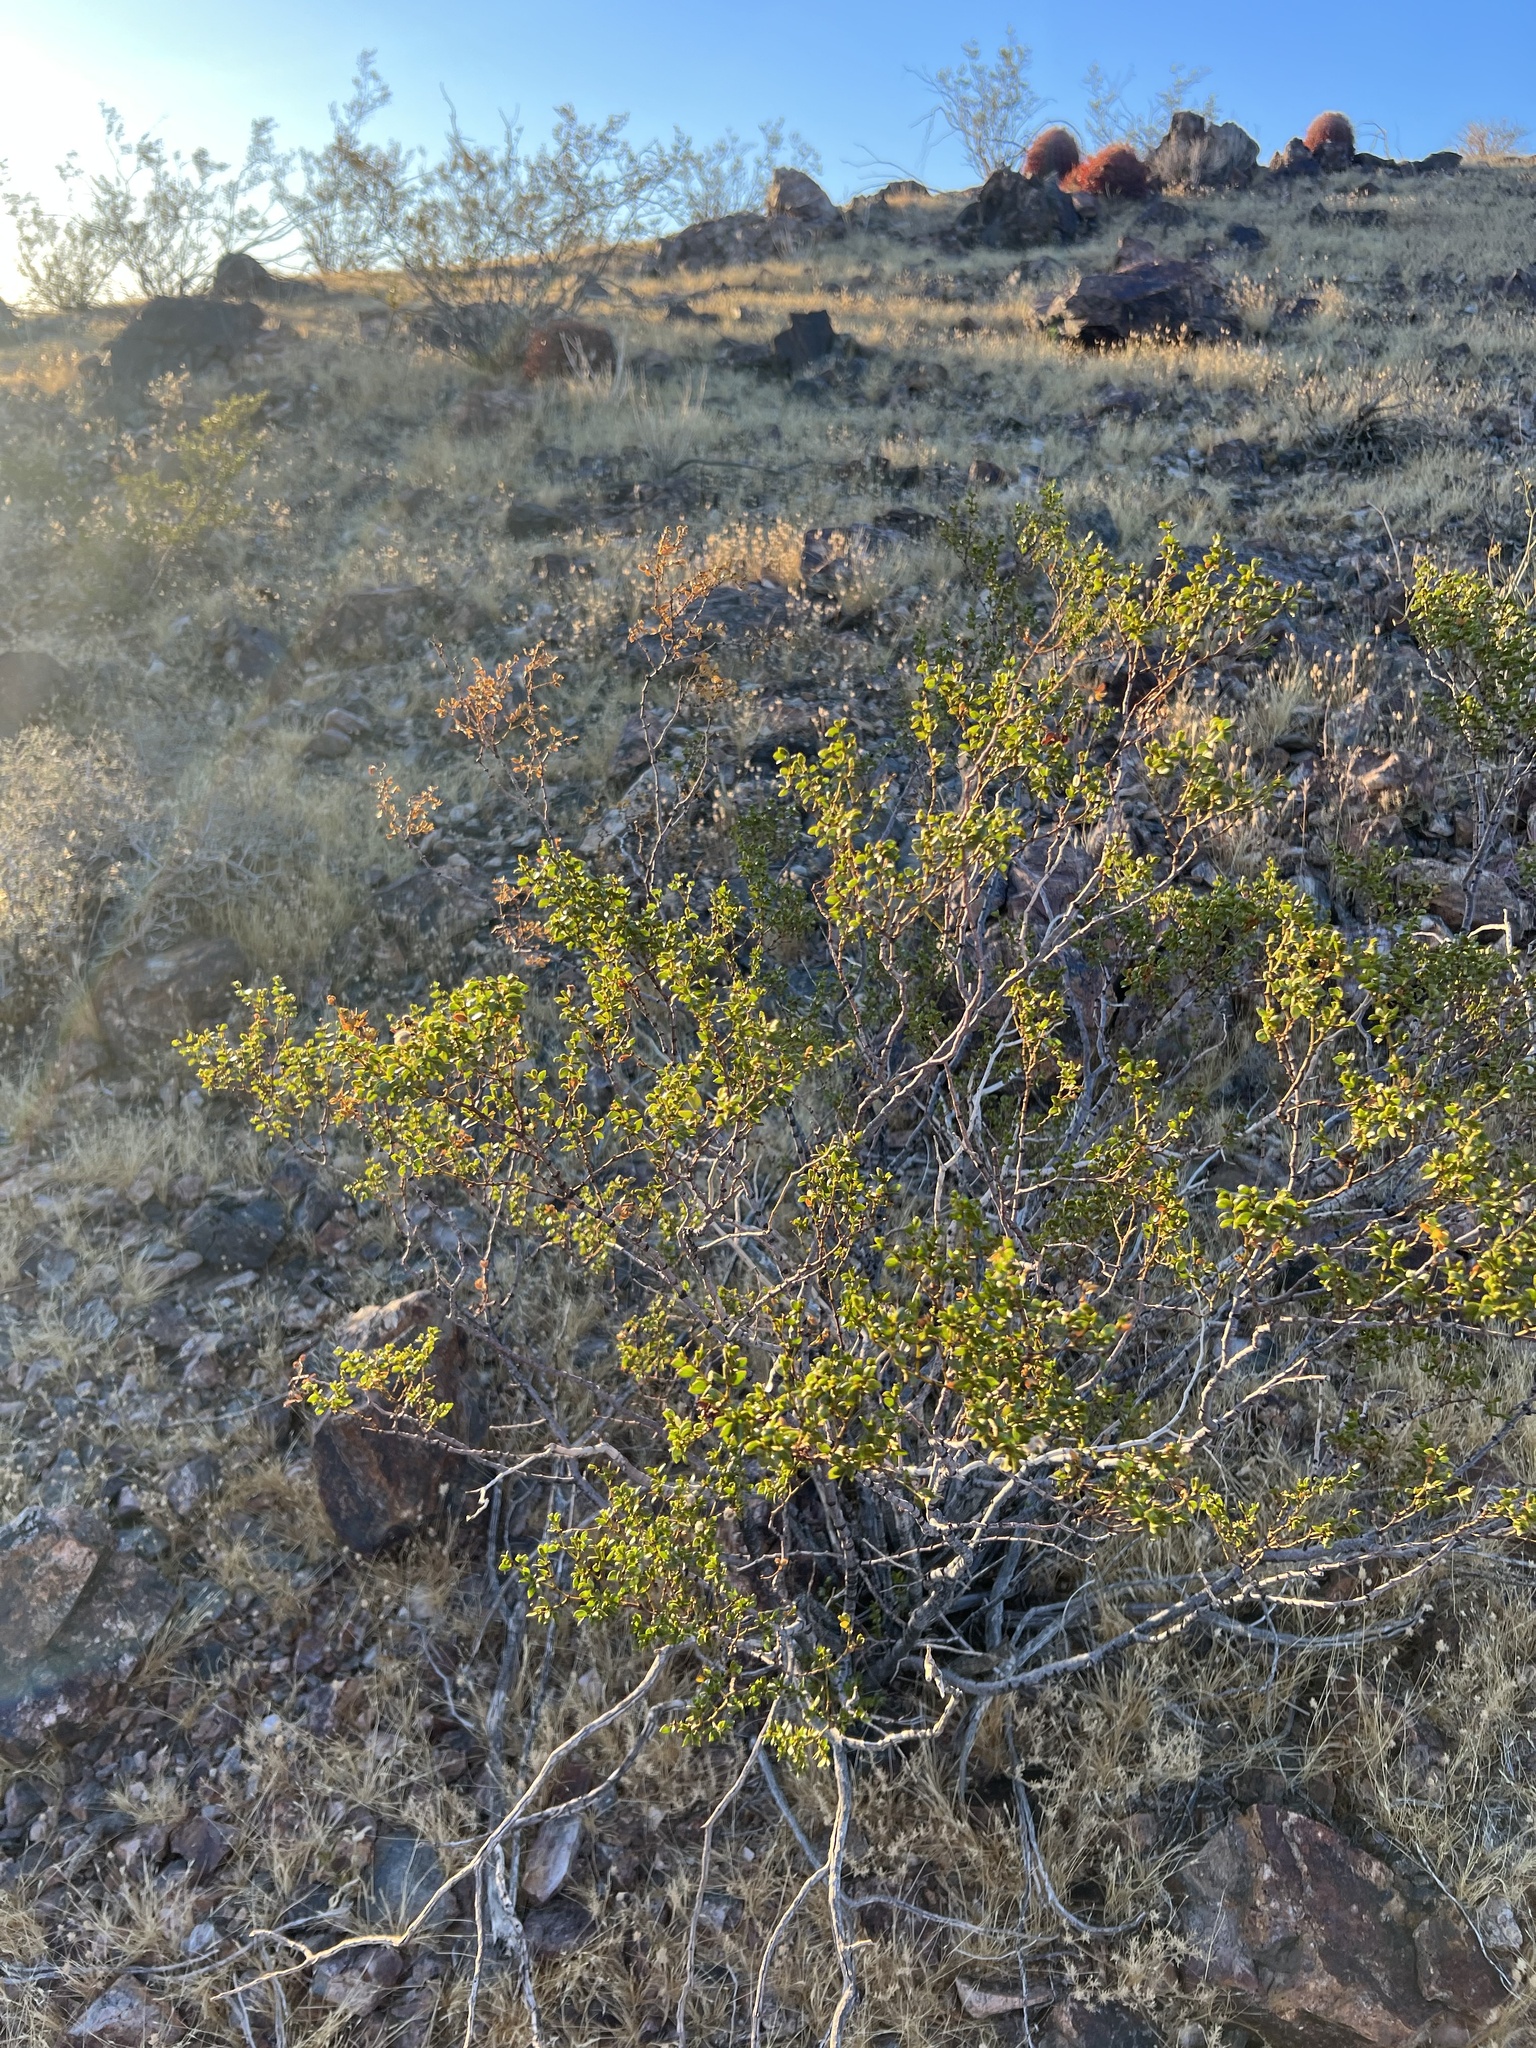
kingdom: Plantae
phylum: Tracheophyta
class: Magnoliopsida
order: Zygophyllales
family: Zygophyllaceae
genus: Larrea
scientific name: Larrea tridentata
